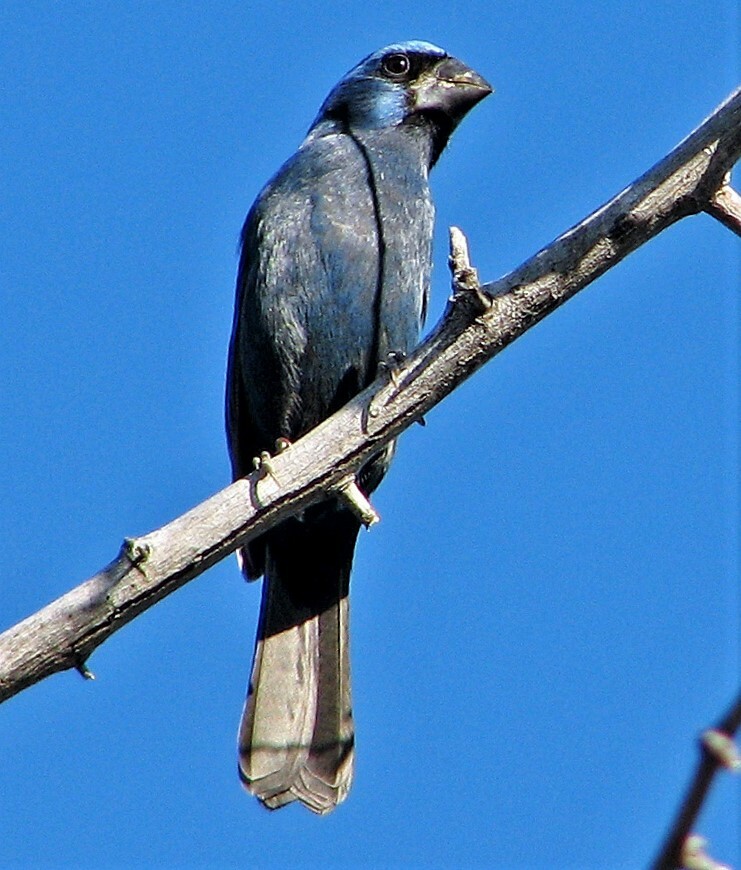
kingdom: Animalia
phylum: Chordata
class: Aves
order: Passeriformes
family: Cardinalidae
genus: Cyanoloxia
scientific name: Cyanoloxia brissonii
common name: Ultramarine grosbeak
